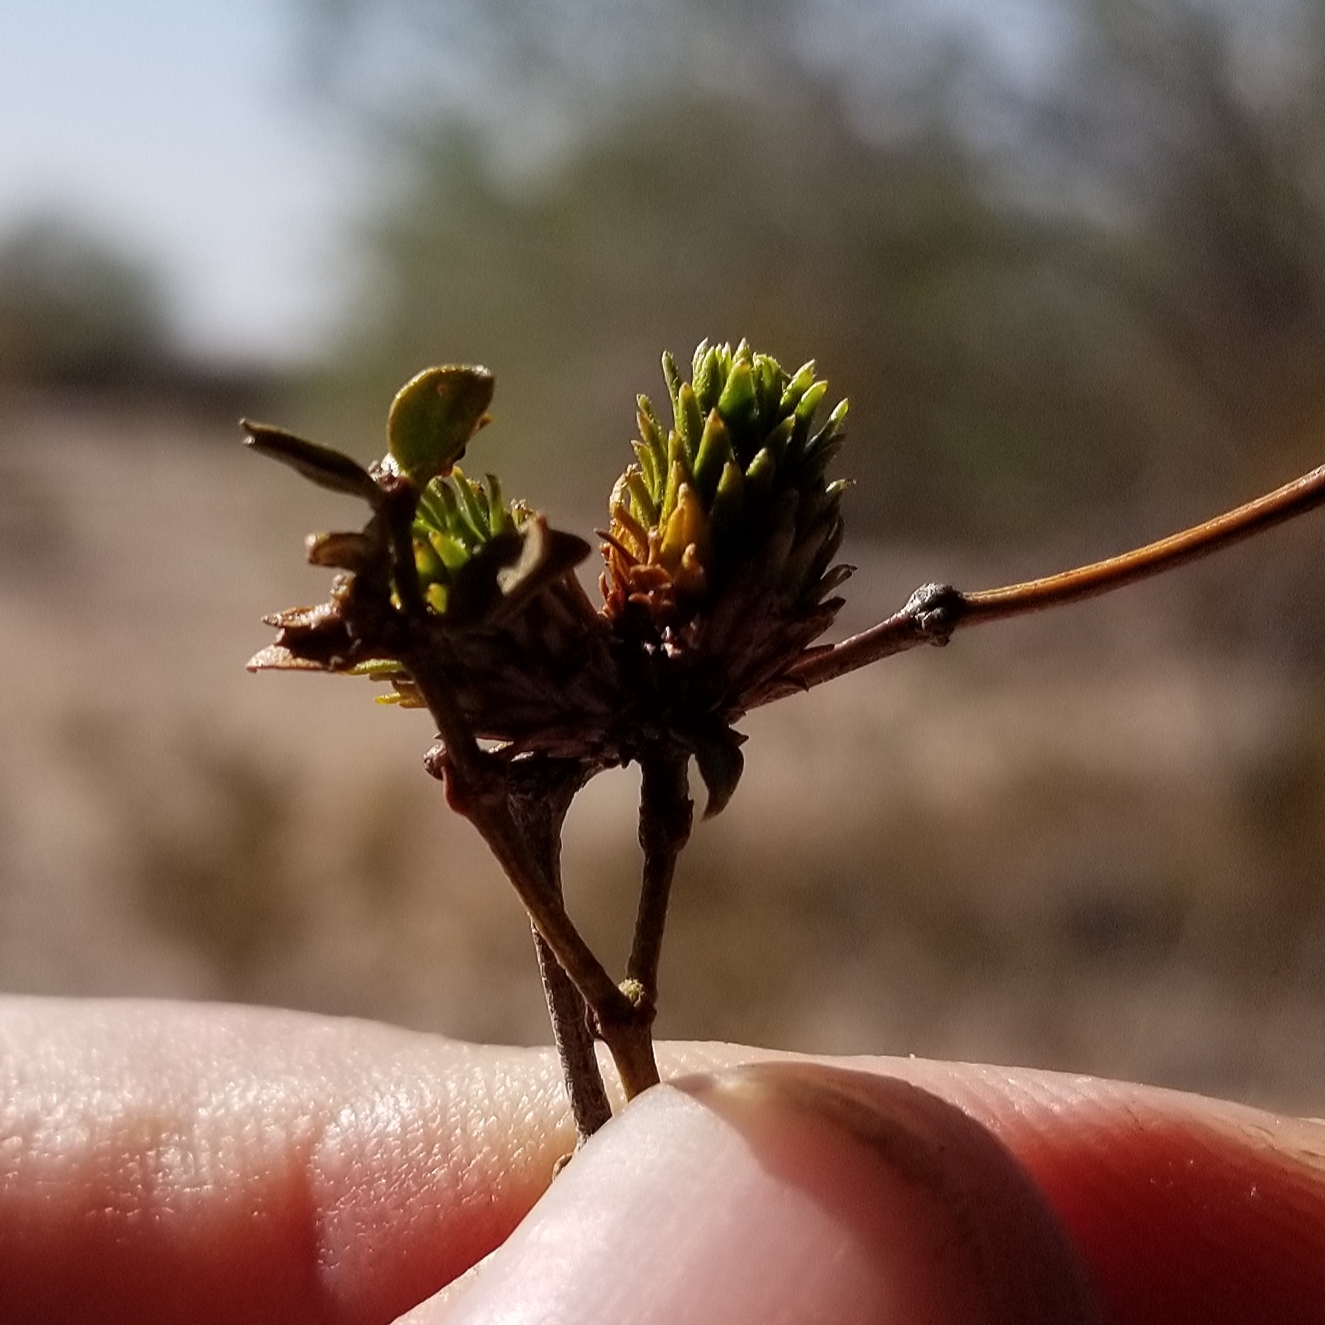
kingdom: Animalia
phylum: Arthropoda
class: Insecta
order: Diptera
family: Cecidomyiidae
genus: Asphondylia
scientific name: Asphondylia rosetta
